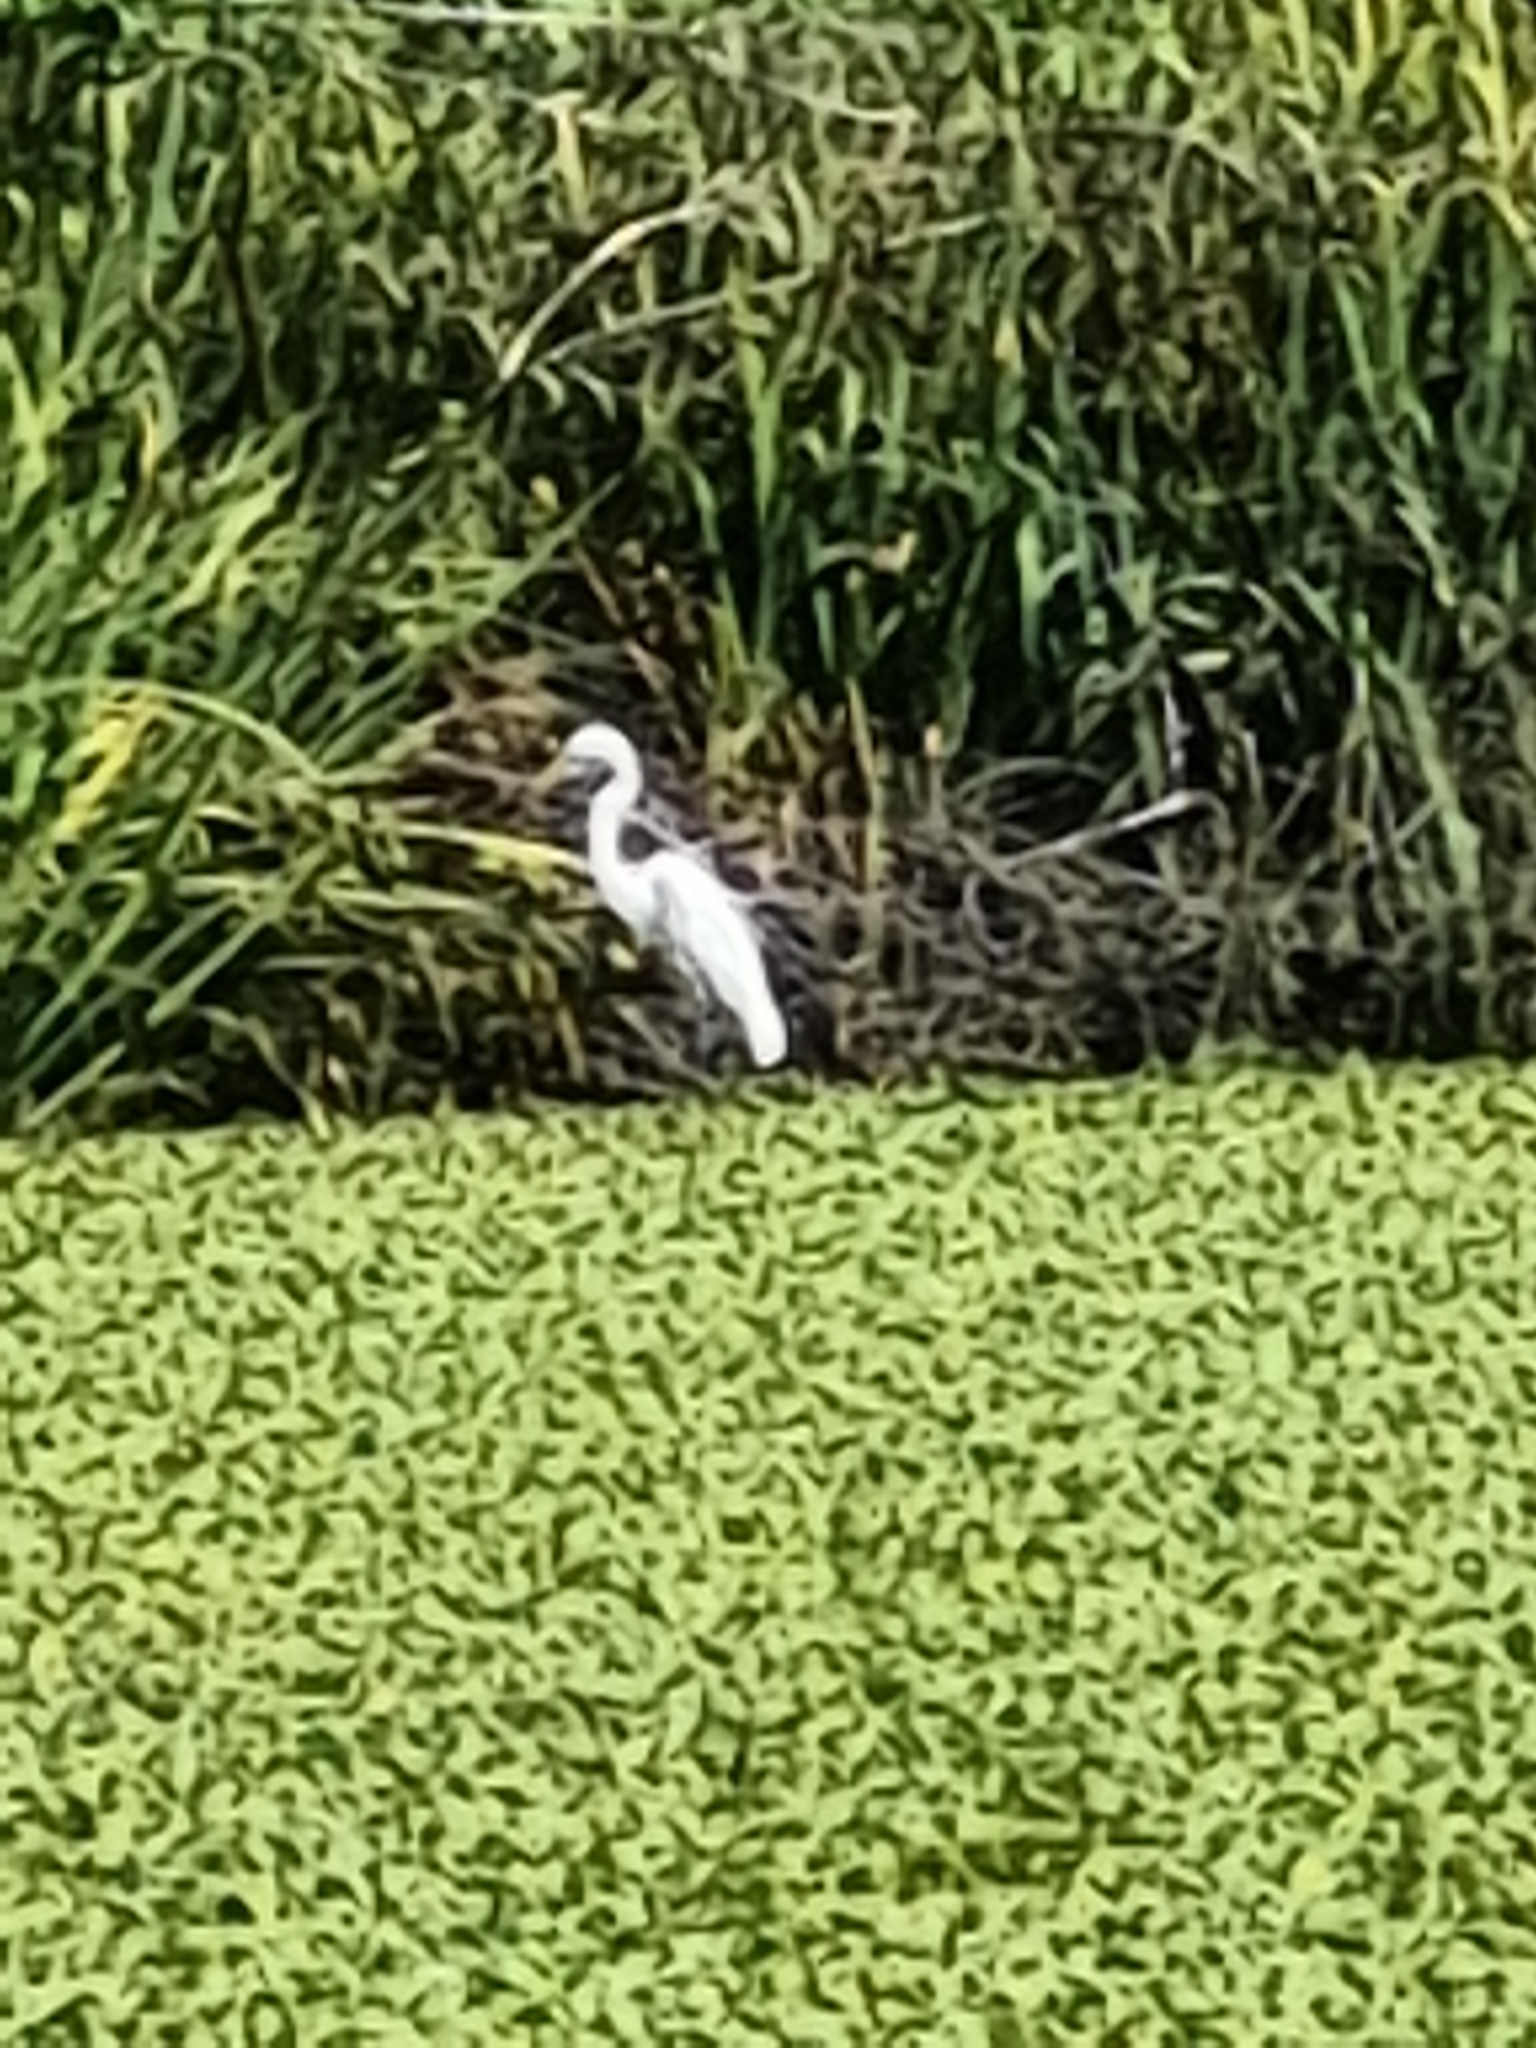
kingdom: Animalia
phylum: Chordata
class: Aves
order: Pelecaniformes
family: Ardeidae
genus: Egretta
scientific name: Egretta thula
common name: Snowy egret
